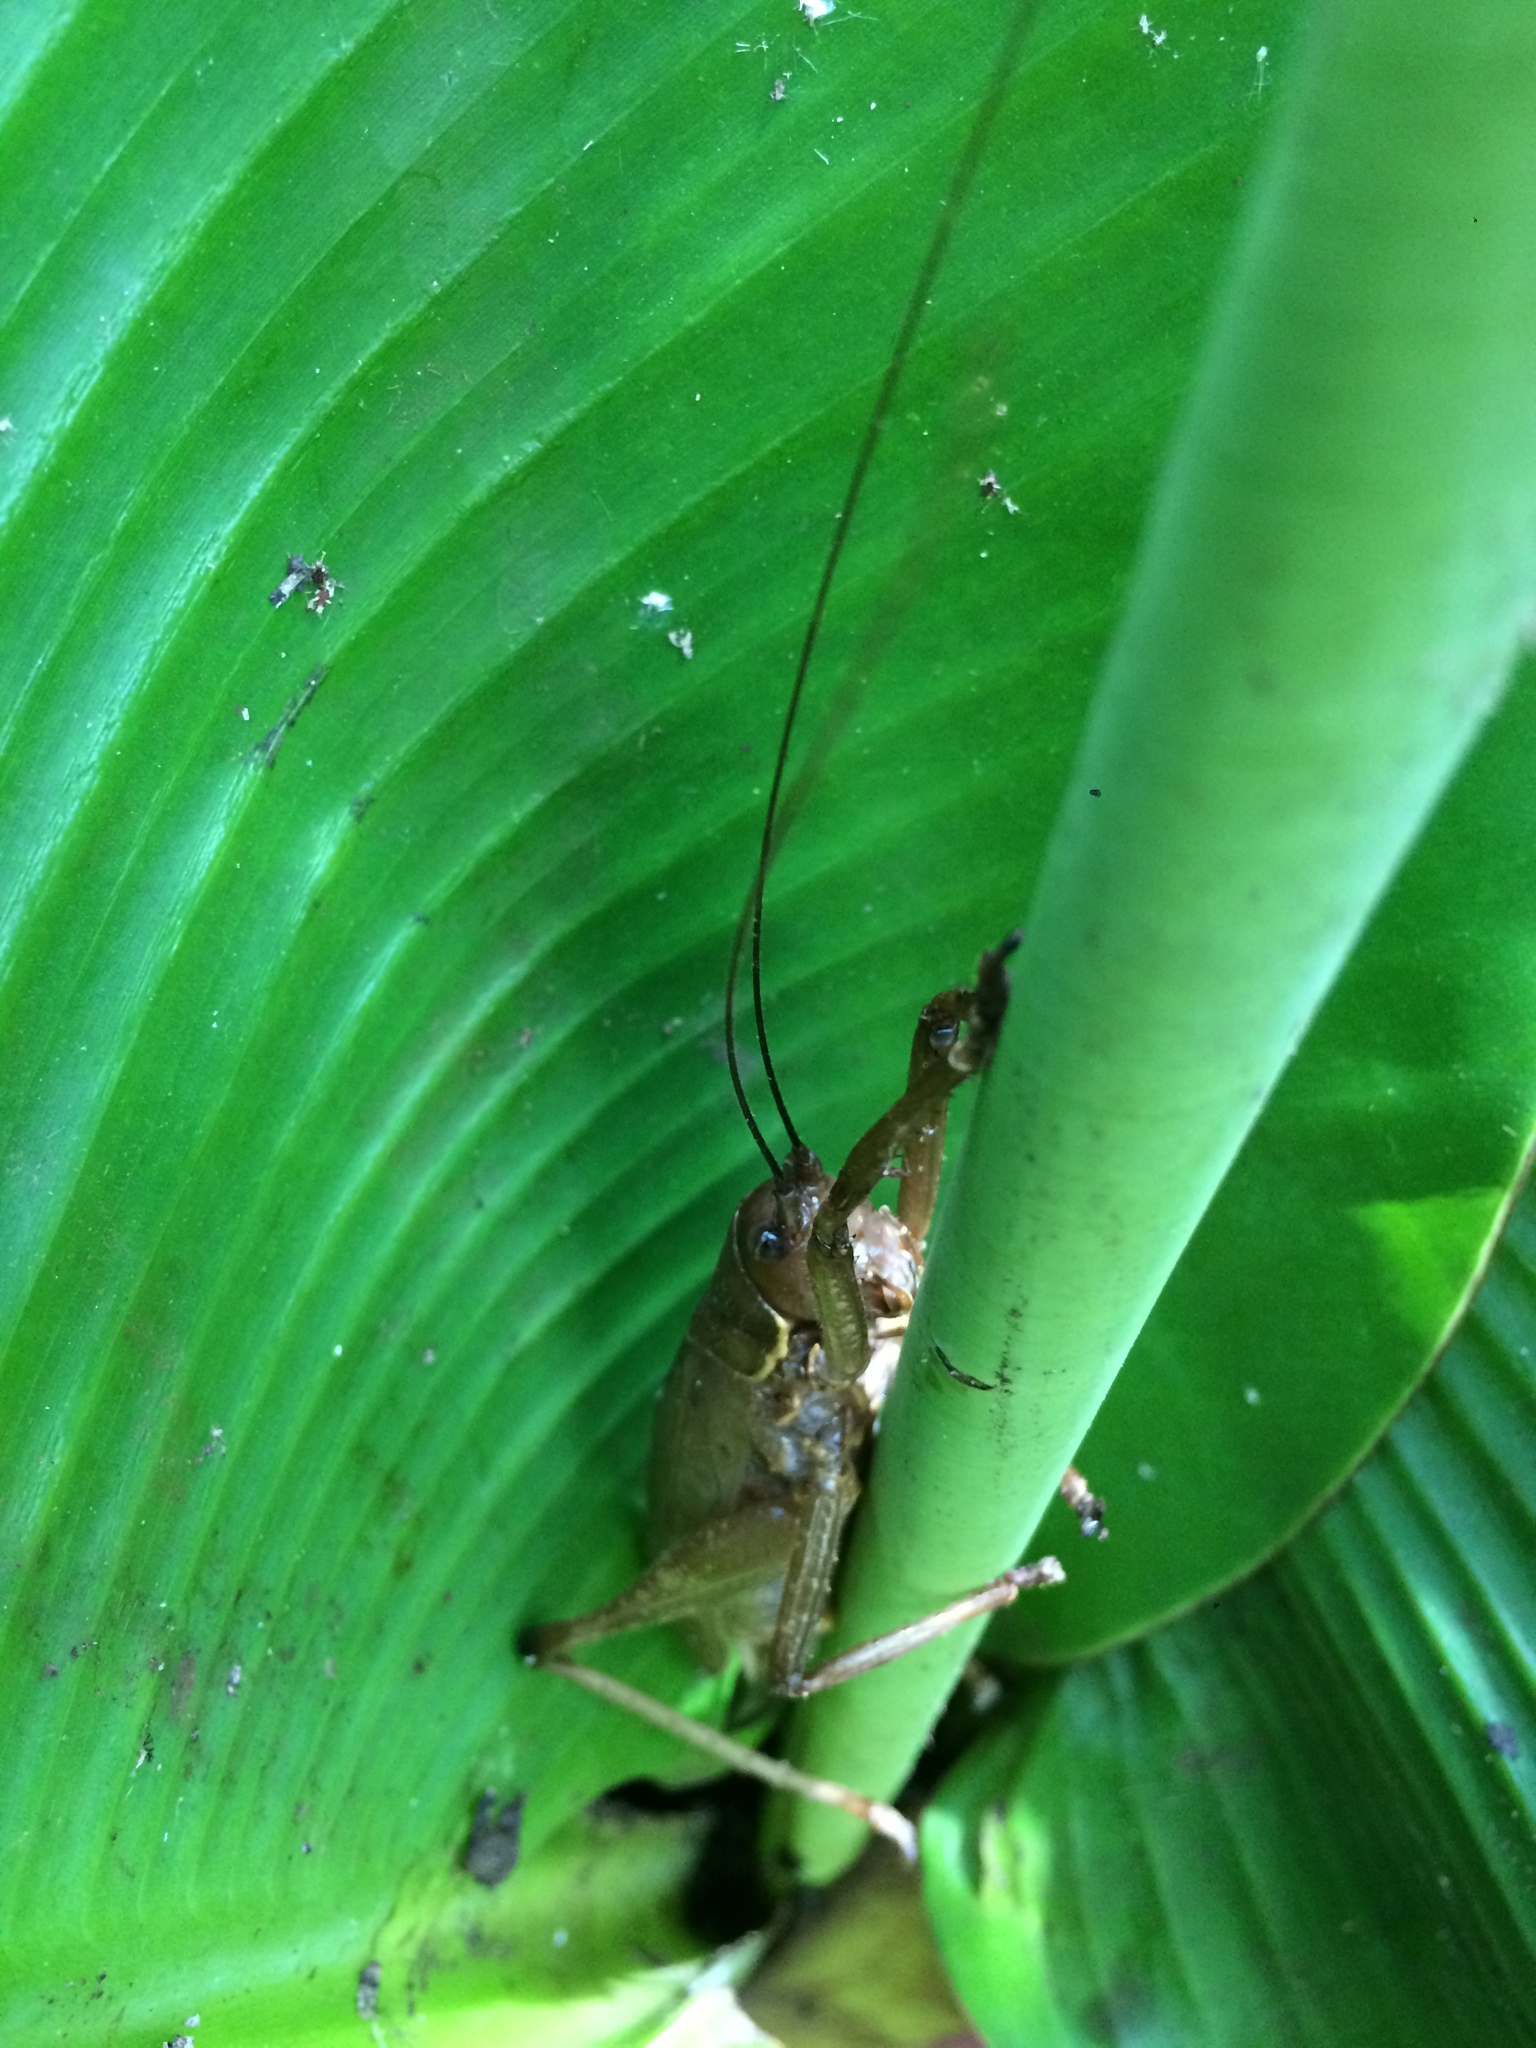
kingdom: Animalia
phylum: Arthropoda
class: Insecta
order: Orthoptera
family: Tettigoniidae
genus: Meroncidius
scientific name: Meroncidius flavolimbatus
